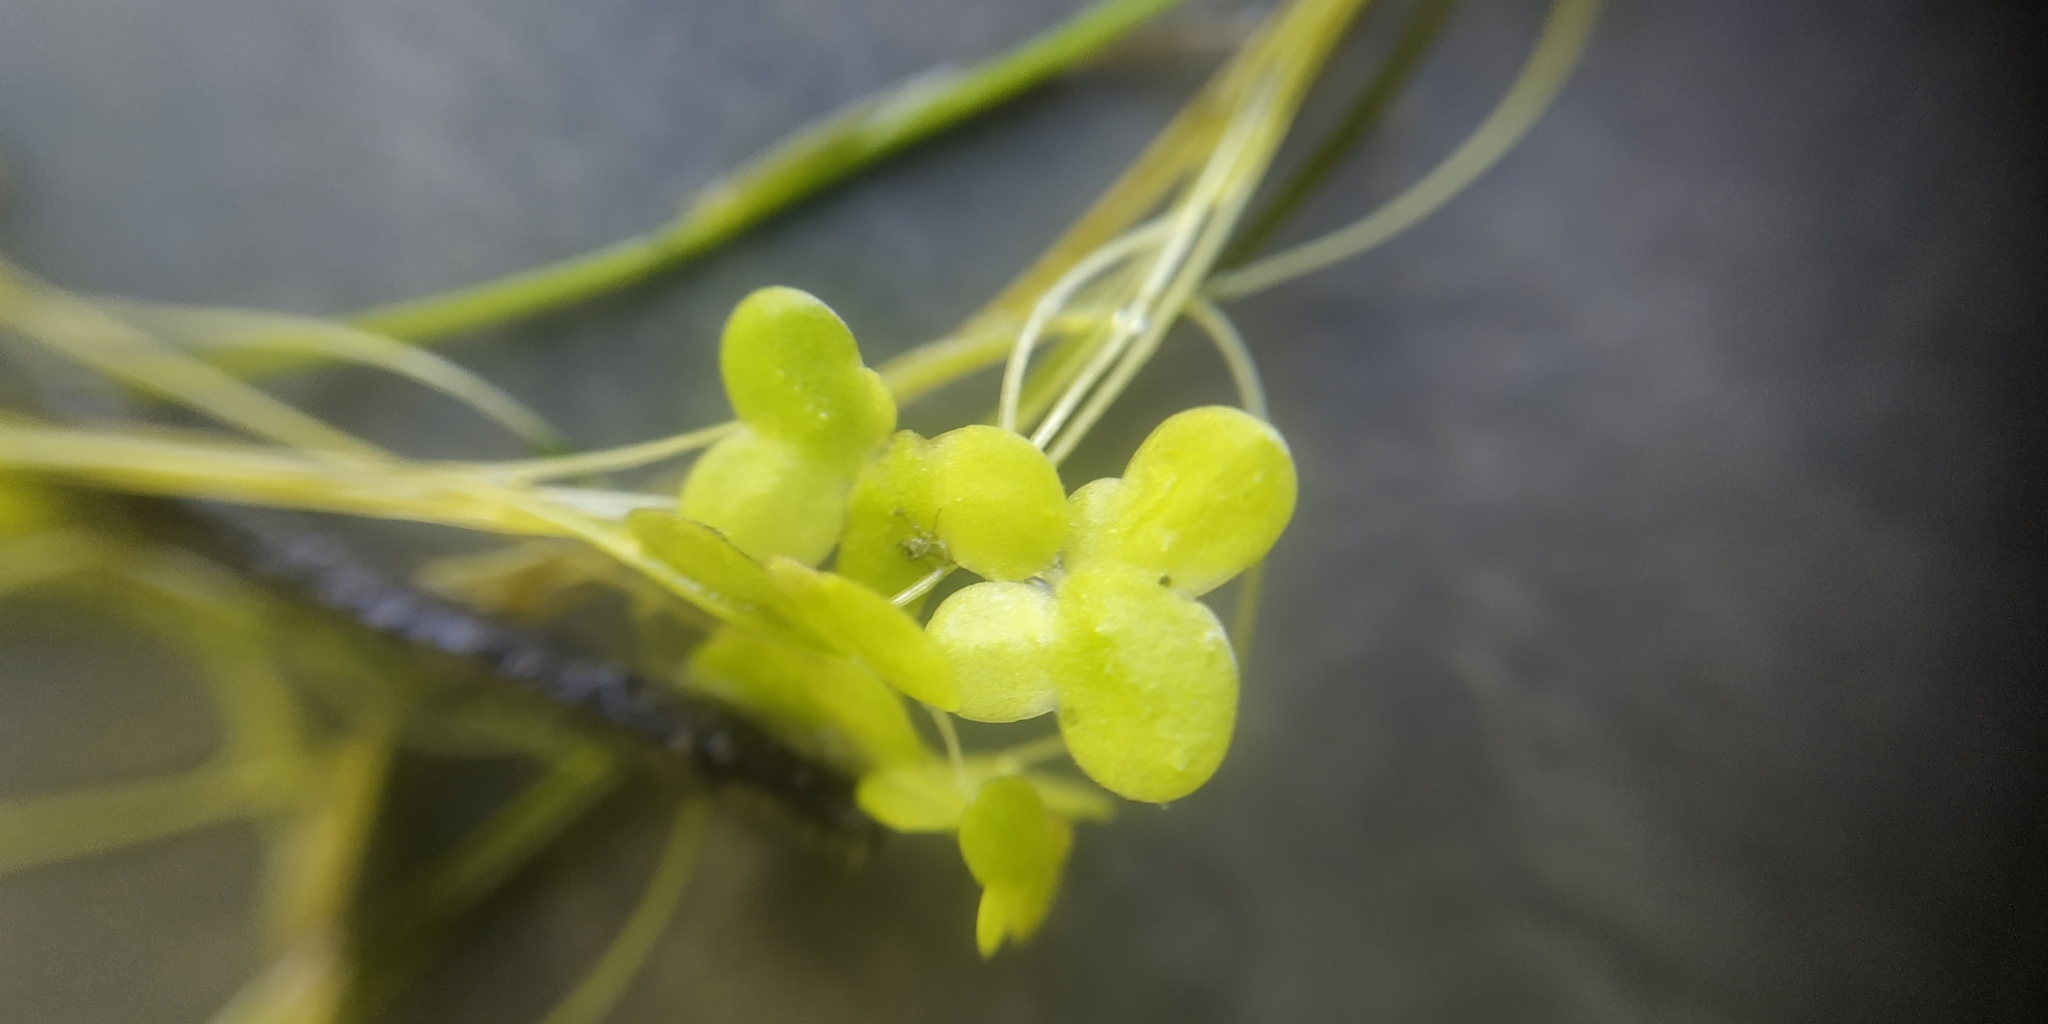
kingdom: Plantae
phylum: Tracheophyta
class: Liliopsida
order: Alismatales
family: Araceae
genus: Lemna
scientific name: Lemna minor
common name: Common duckweed
